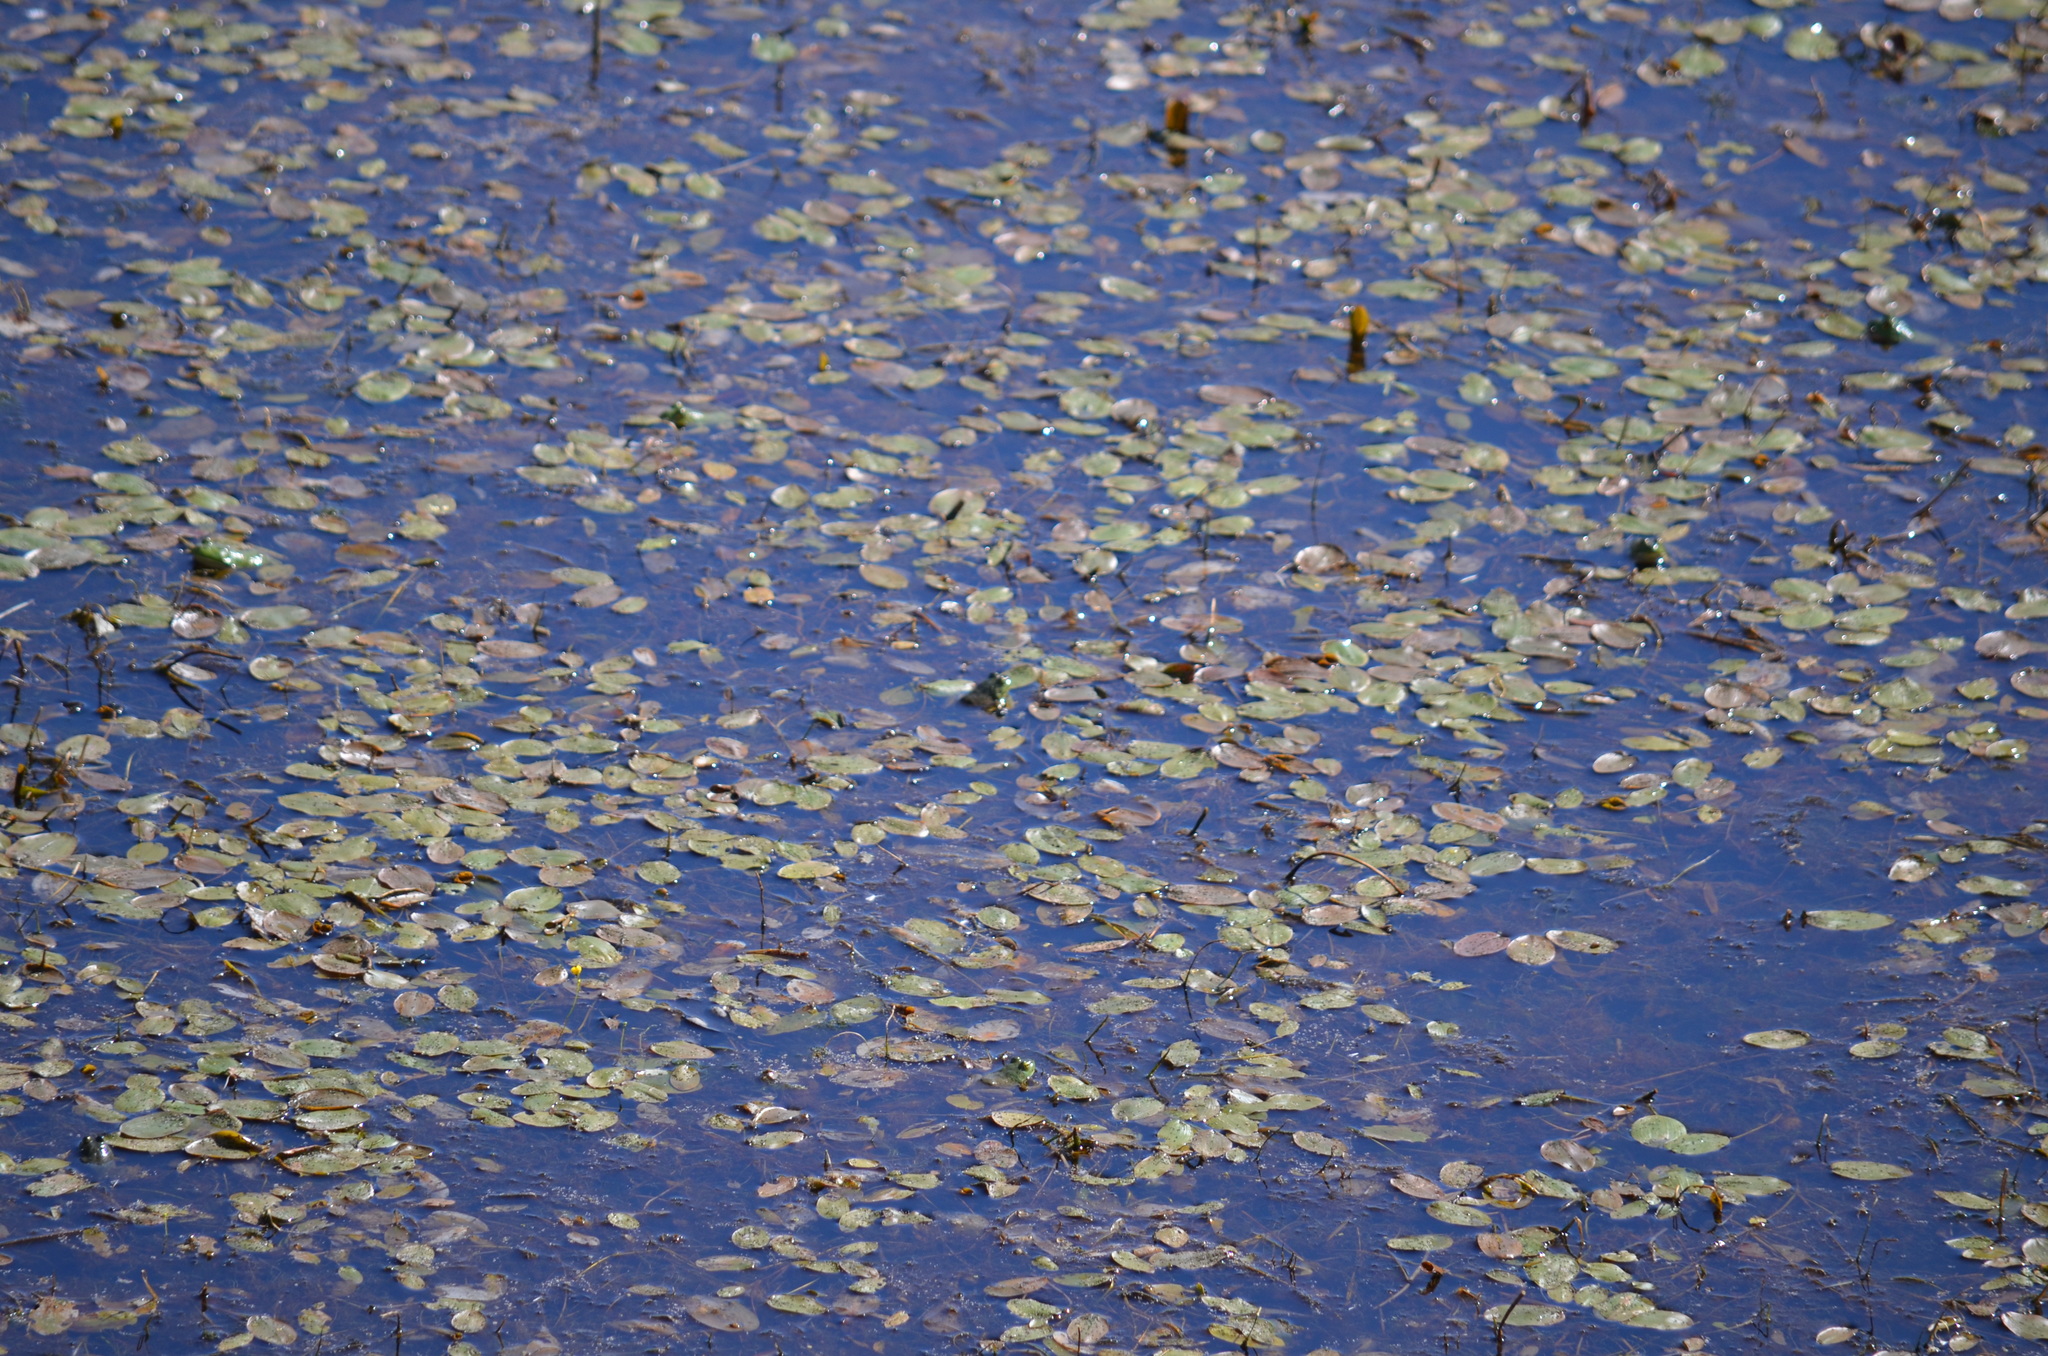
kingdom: Animalia
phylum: Chordata
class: Amphibia
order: Anura
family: Ranidae
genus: Lithobates
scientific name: Lithobates catesbeianus
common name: American bullfrog
